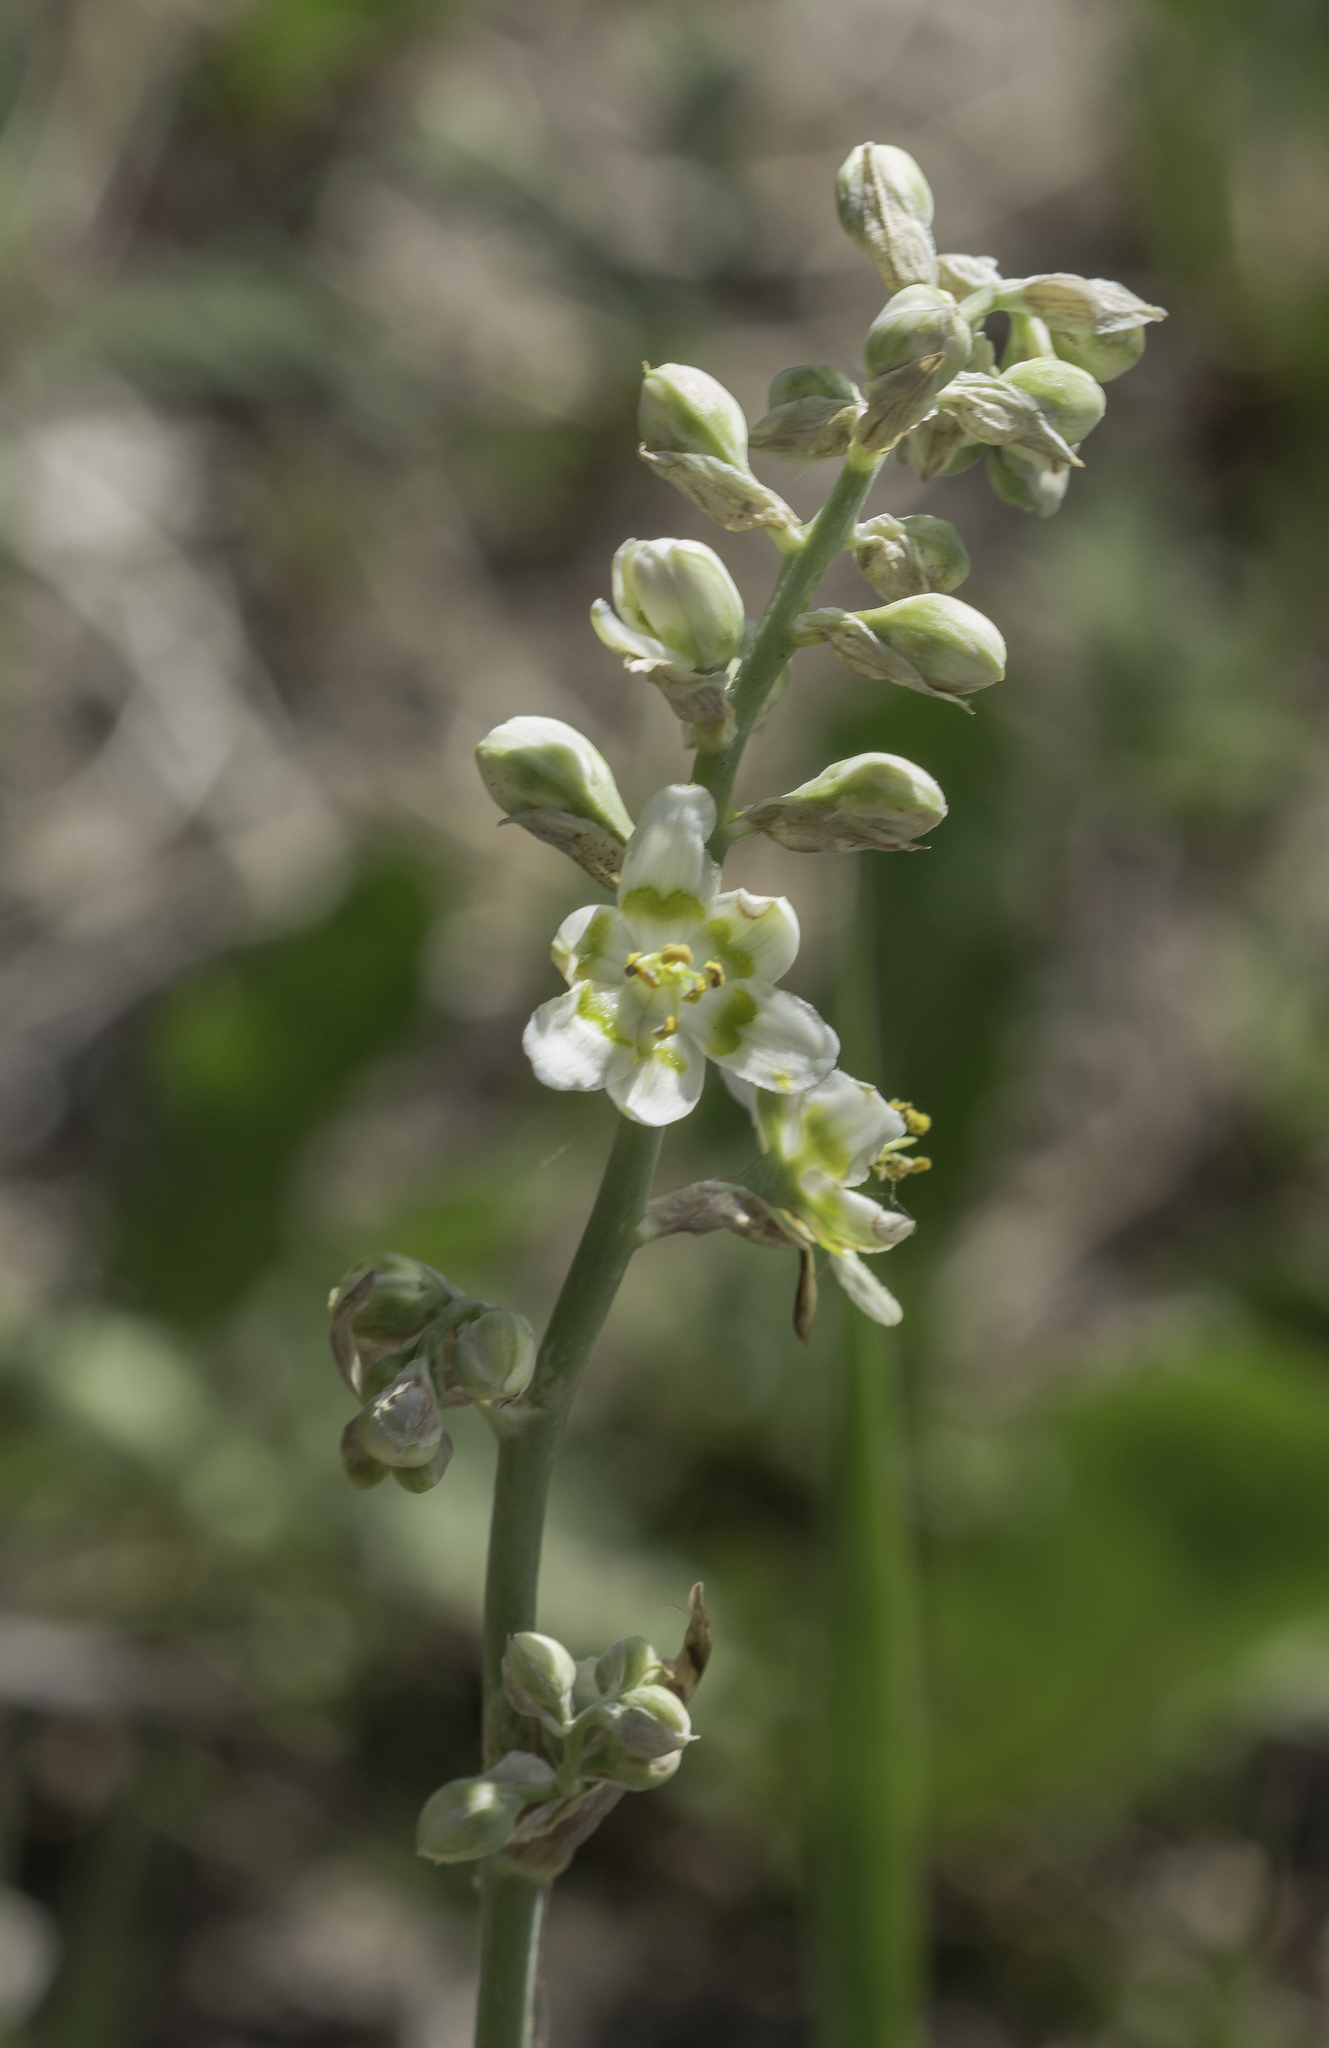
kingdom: Plantae
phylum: Tracheophyta
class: Liliopsida
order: Liliales
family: Melanthiaceae
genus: Anticlea
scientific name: Anticlea elegans
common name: Mountain death camas
